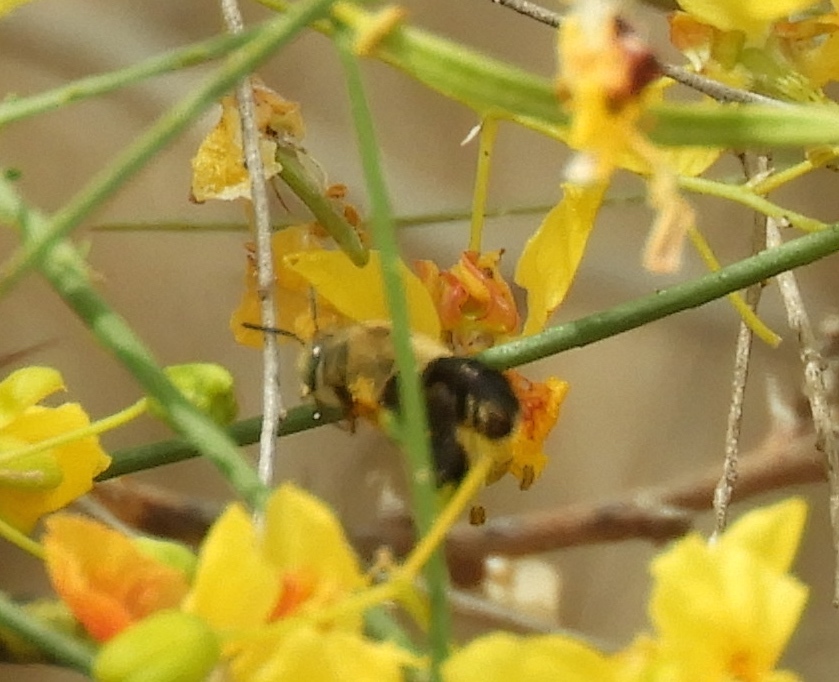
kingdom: Animalia
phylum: Arthropoda
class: Insecta
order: Hymenoptera
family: Apidae
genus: Centris
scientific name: Centris nitida
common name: Oil-collecting bee
